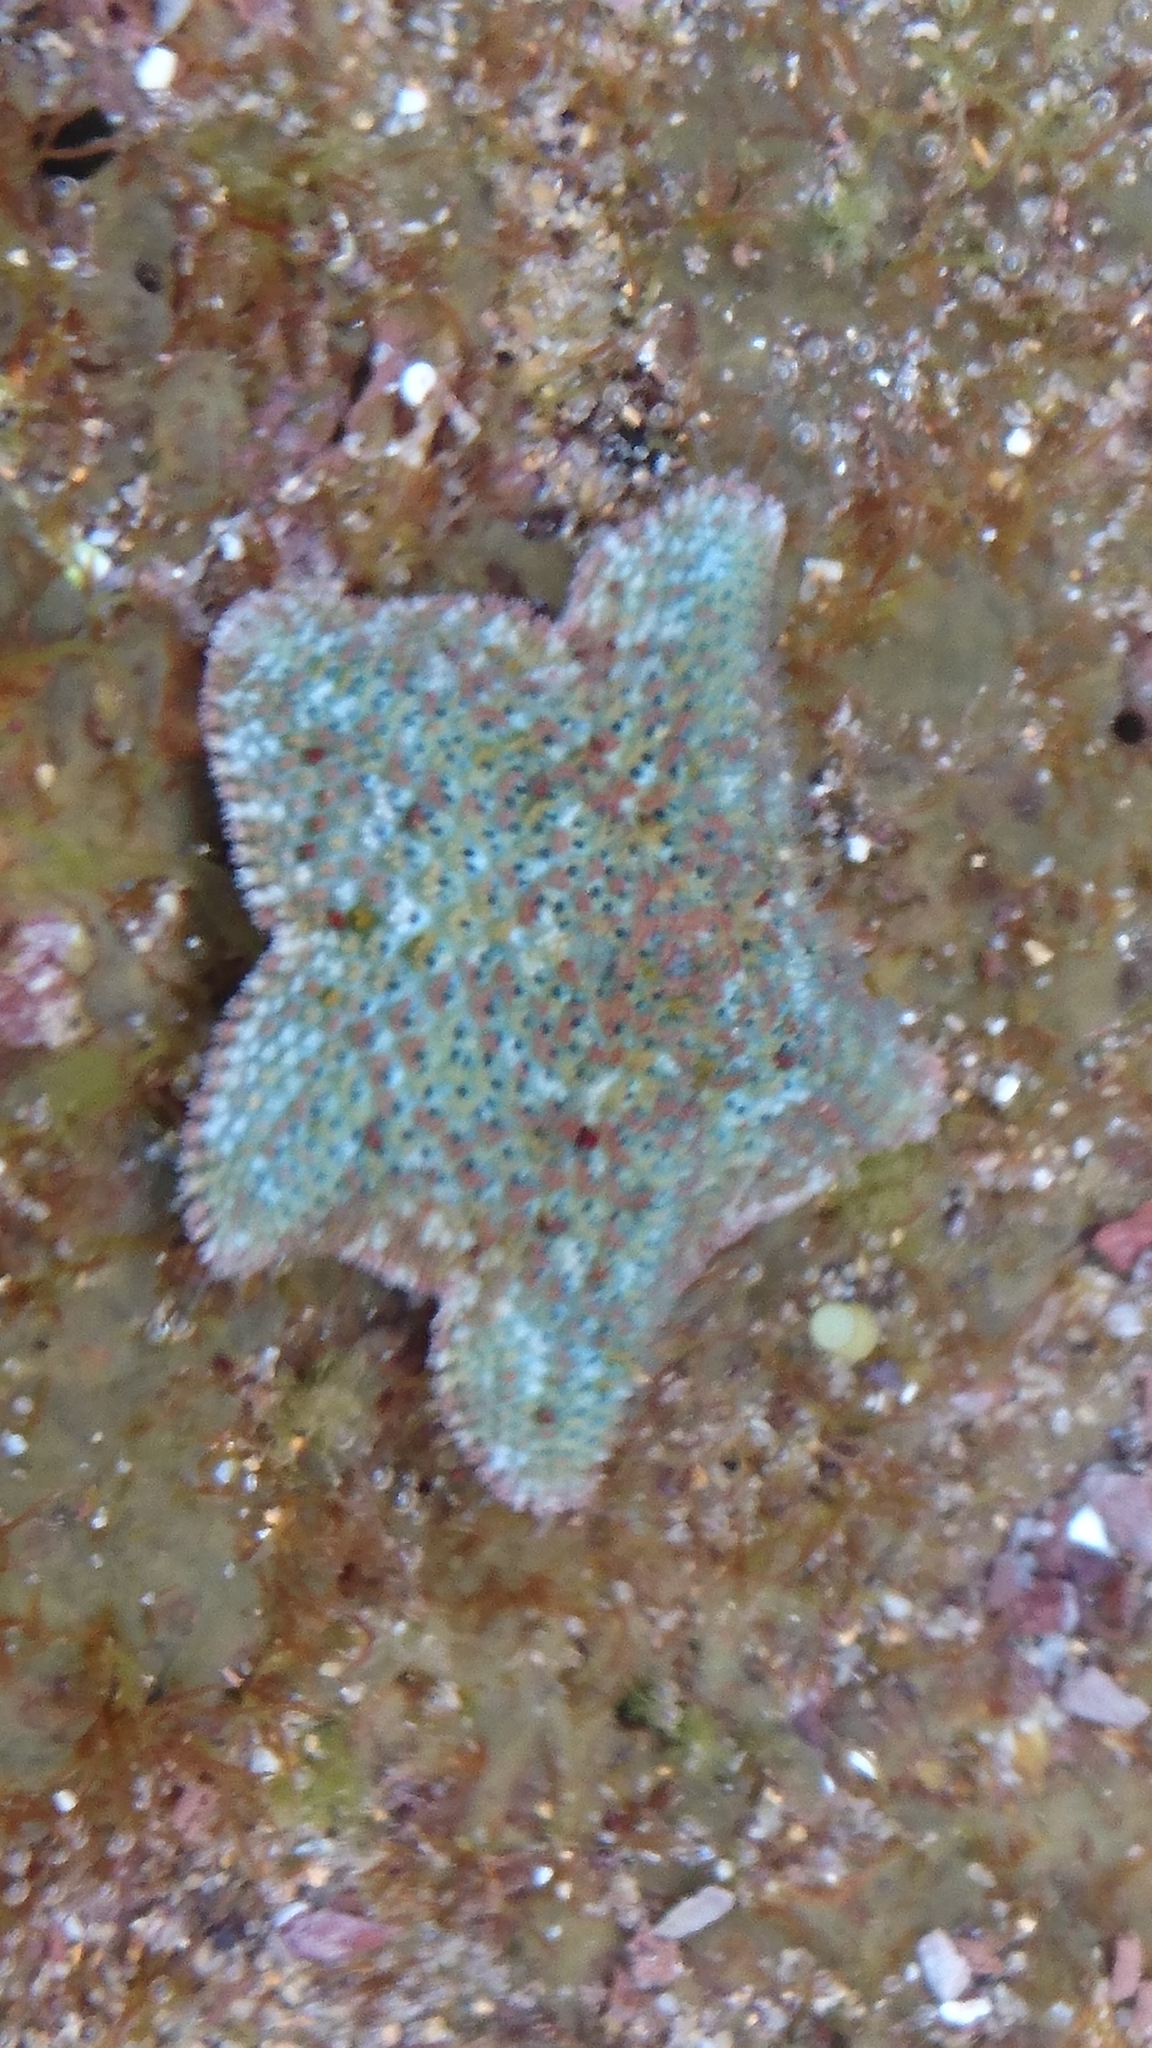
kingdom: Animalia
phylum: Echinodermata
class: Asteroidea
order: Valvatida
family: Asterinidae
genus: Parvulastra
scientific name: Parvulastra exigua
